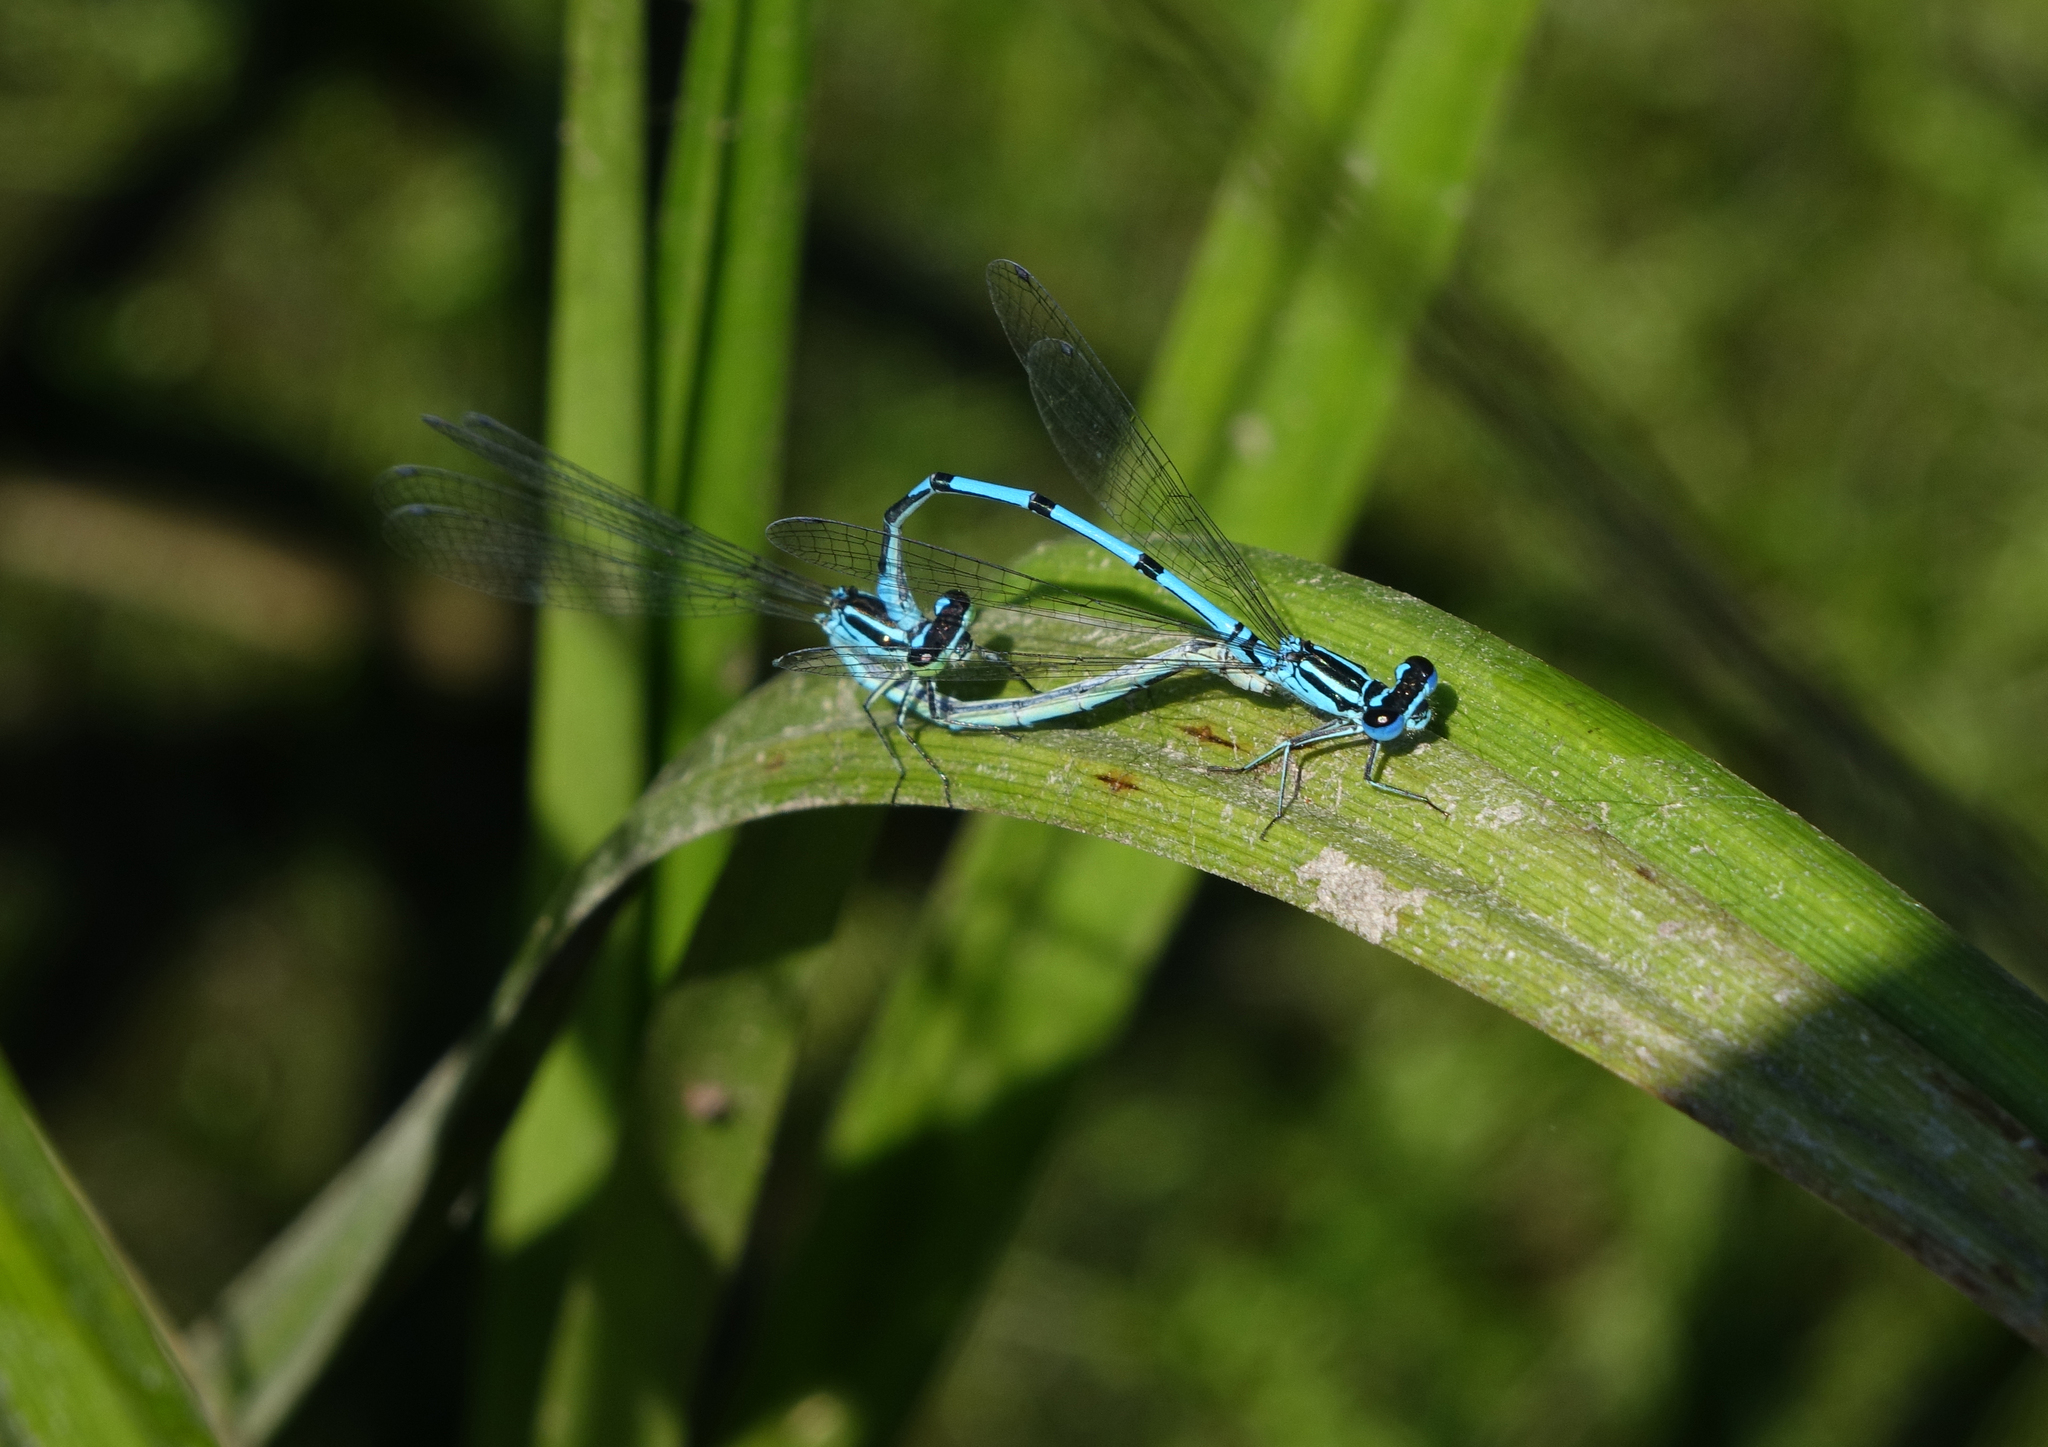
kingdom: Animalia
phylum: Arthropoda
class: Insecta
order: Odonata
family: Coenagrionidae
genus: Coenagrion
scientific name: Coenagrion puella
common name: Azure damselfly
